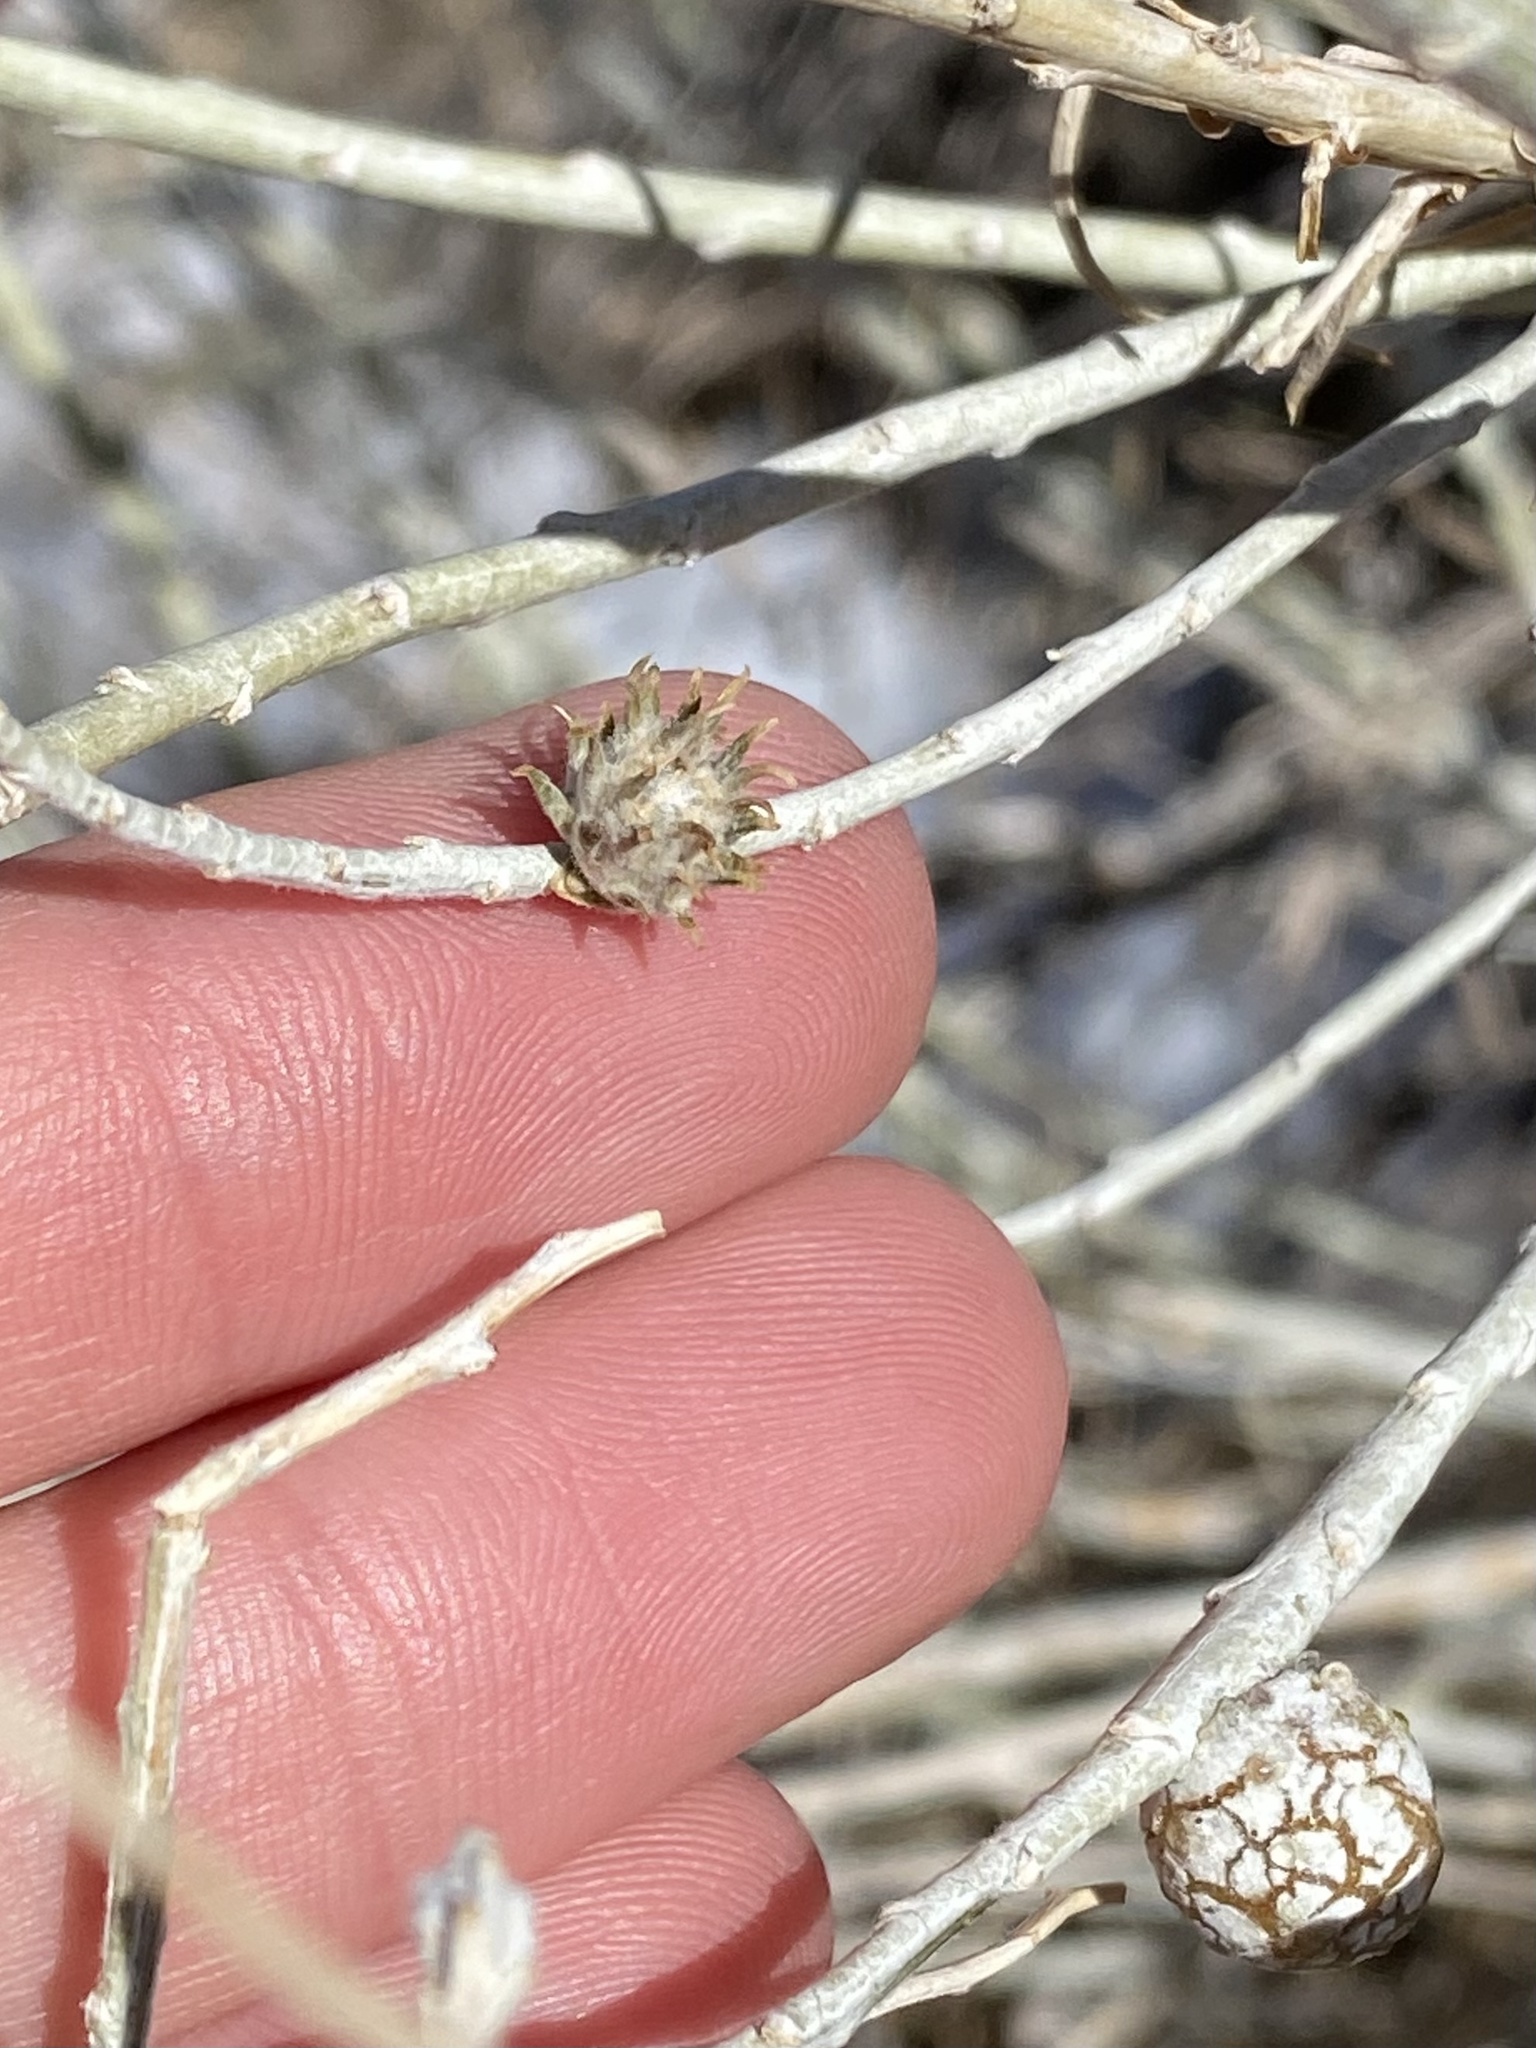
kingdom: Animalia
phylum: Arthropoda
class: Insecta
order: Diptera
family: Tephritidae
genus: Aciurina
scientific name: Aciurina trixa
